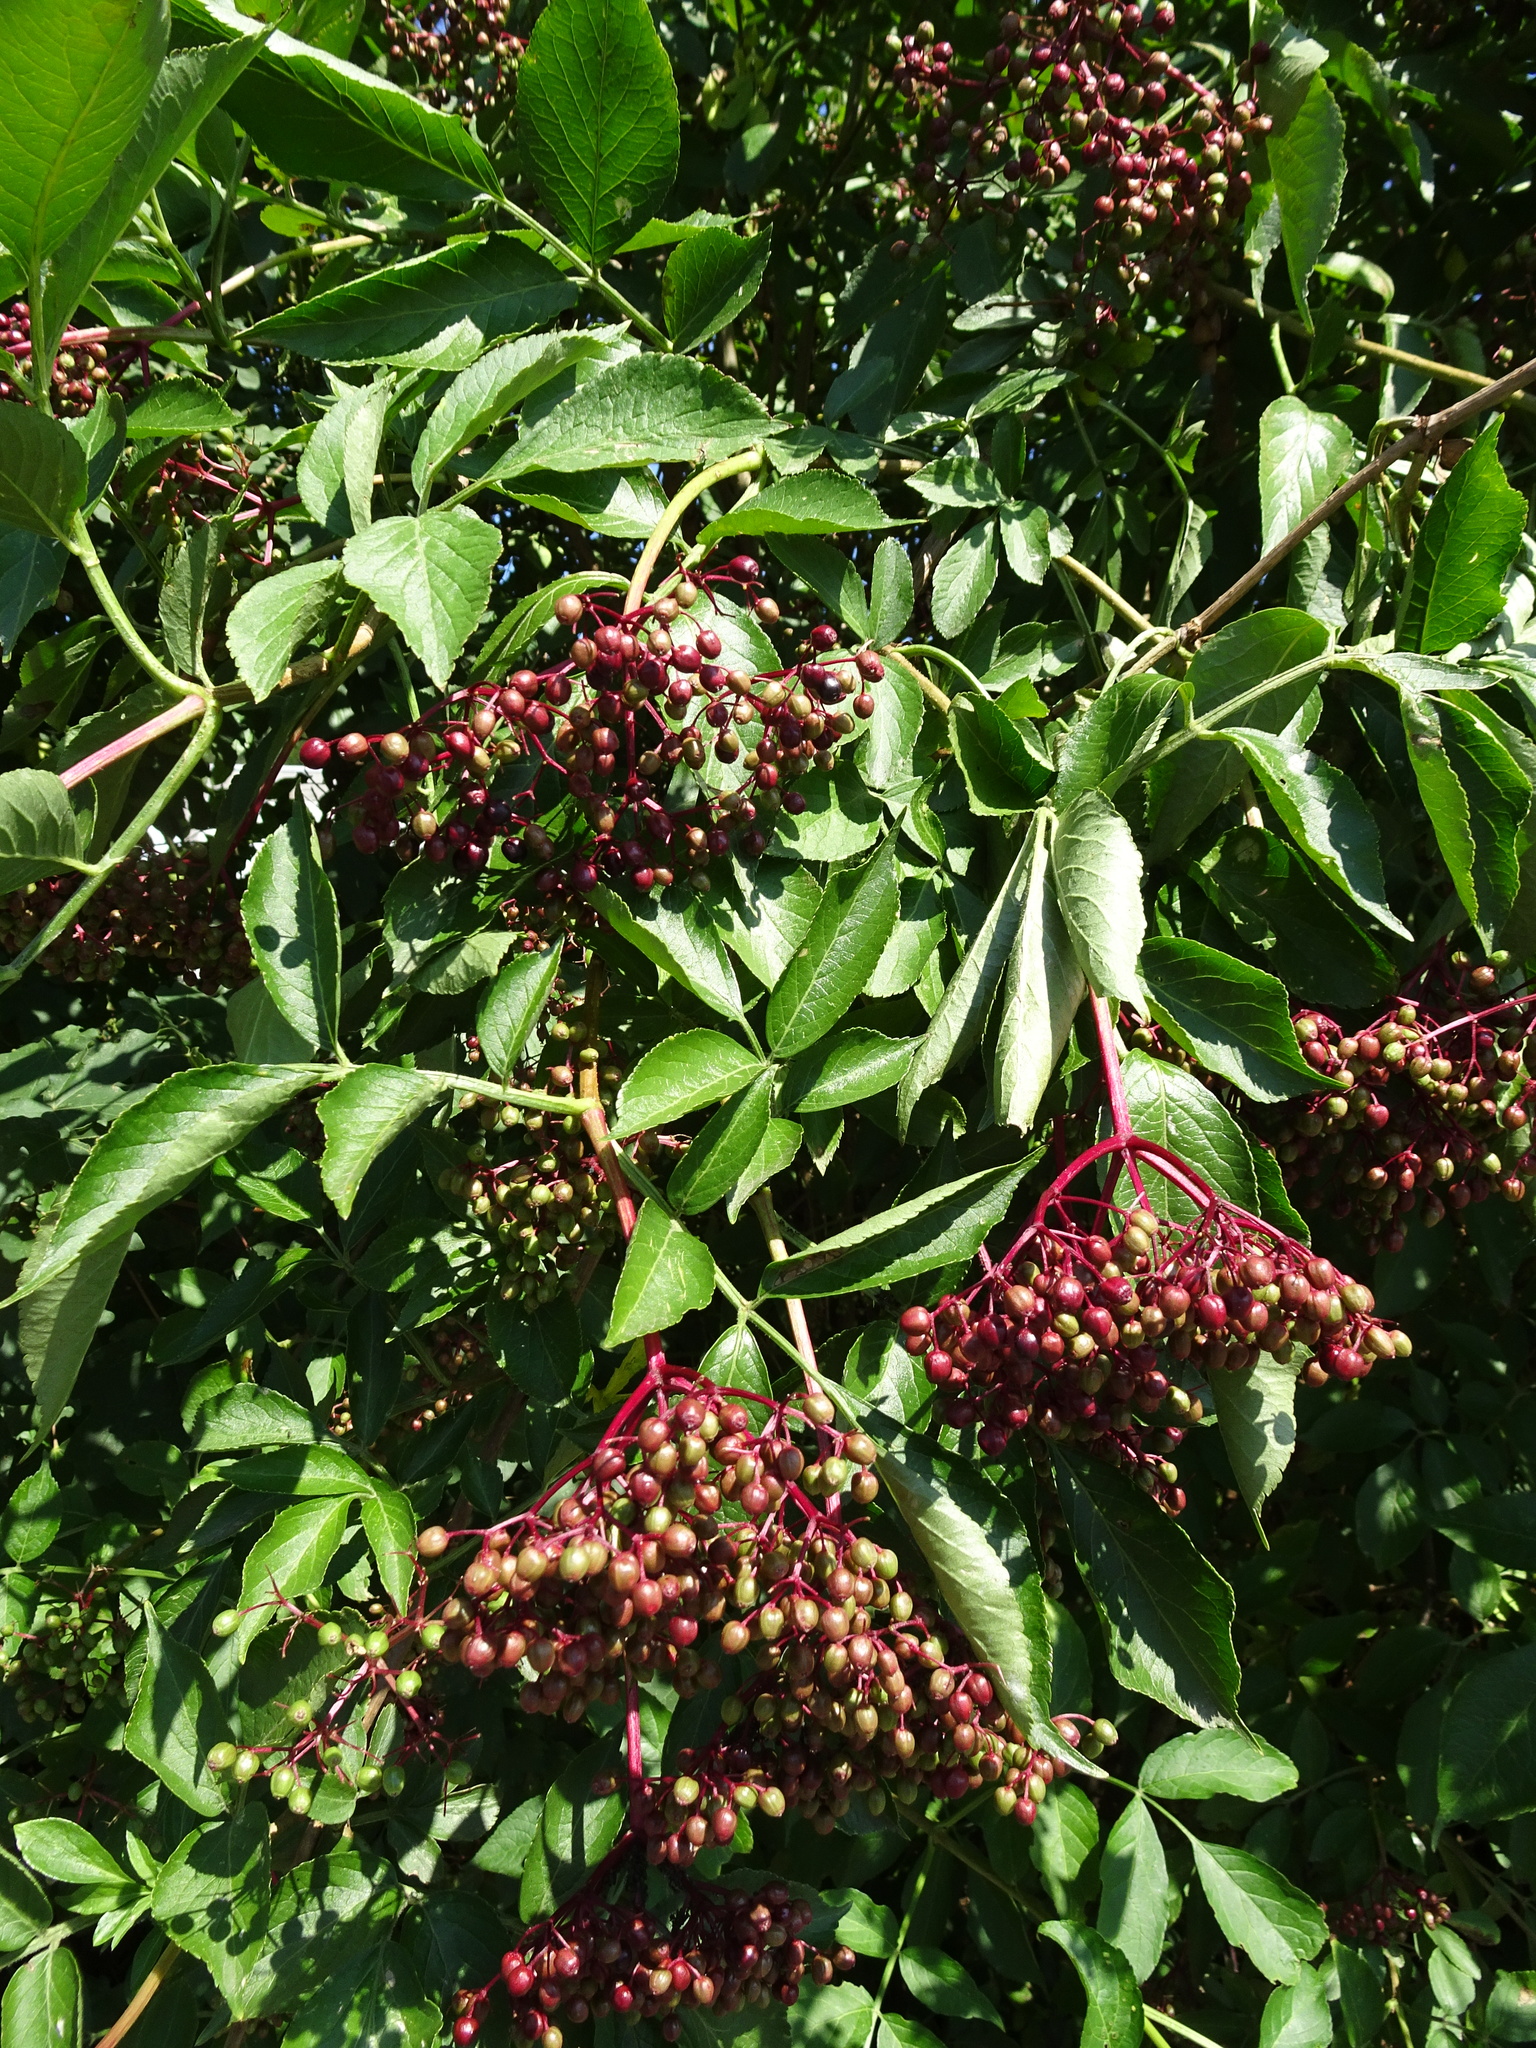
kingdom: Plantae
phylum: Tracheophyta
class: Magnoliopsida
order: Dipsacales
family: Viburnaceae
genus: Sambucus
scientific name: Sambucus nigra
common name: Elder
